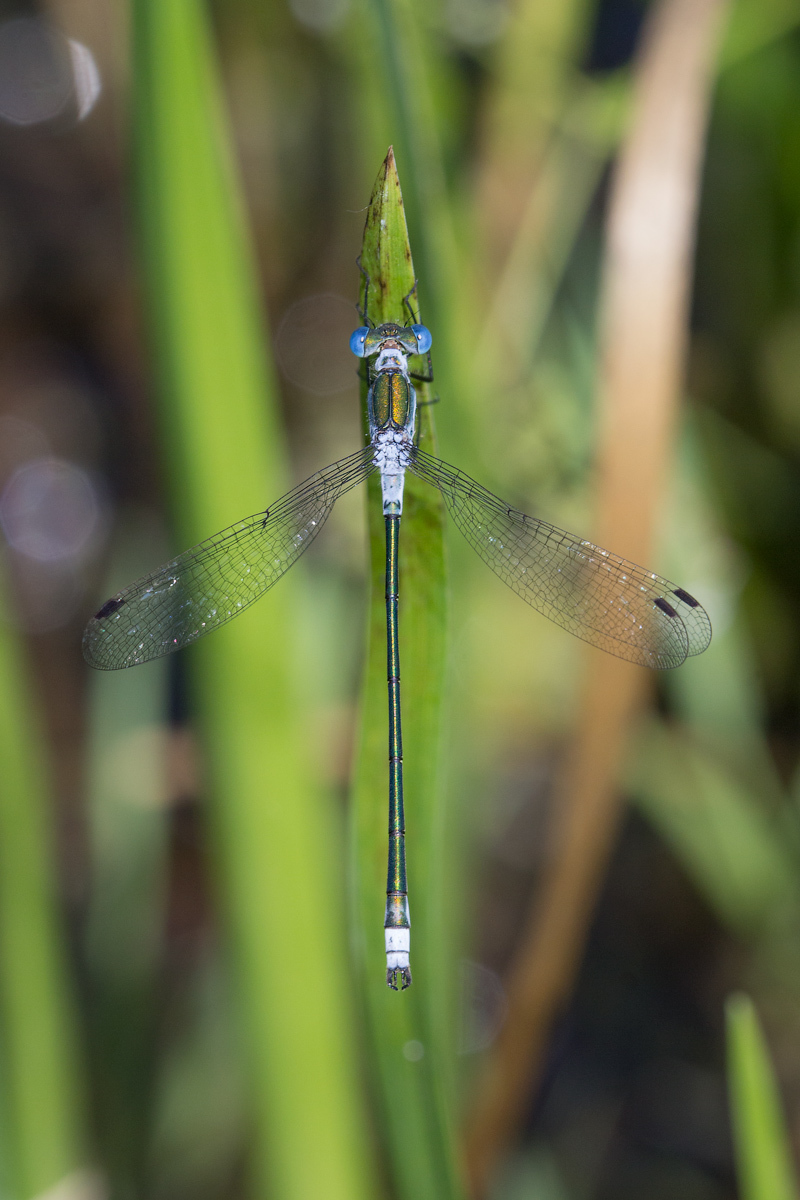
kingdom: Animalia
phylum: Arthropoda
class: Insecta
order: Odonata
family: Lestidae
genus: Lestes
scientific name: Lestes sponsa
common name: Common spreadwing
